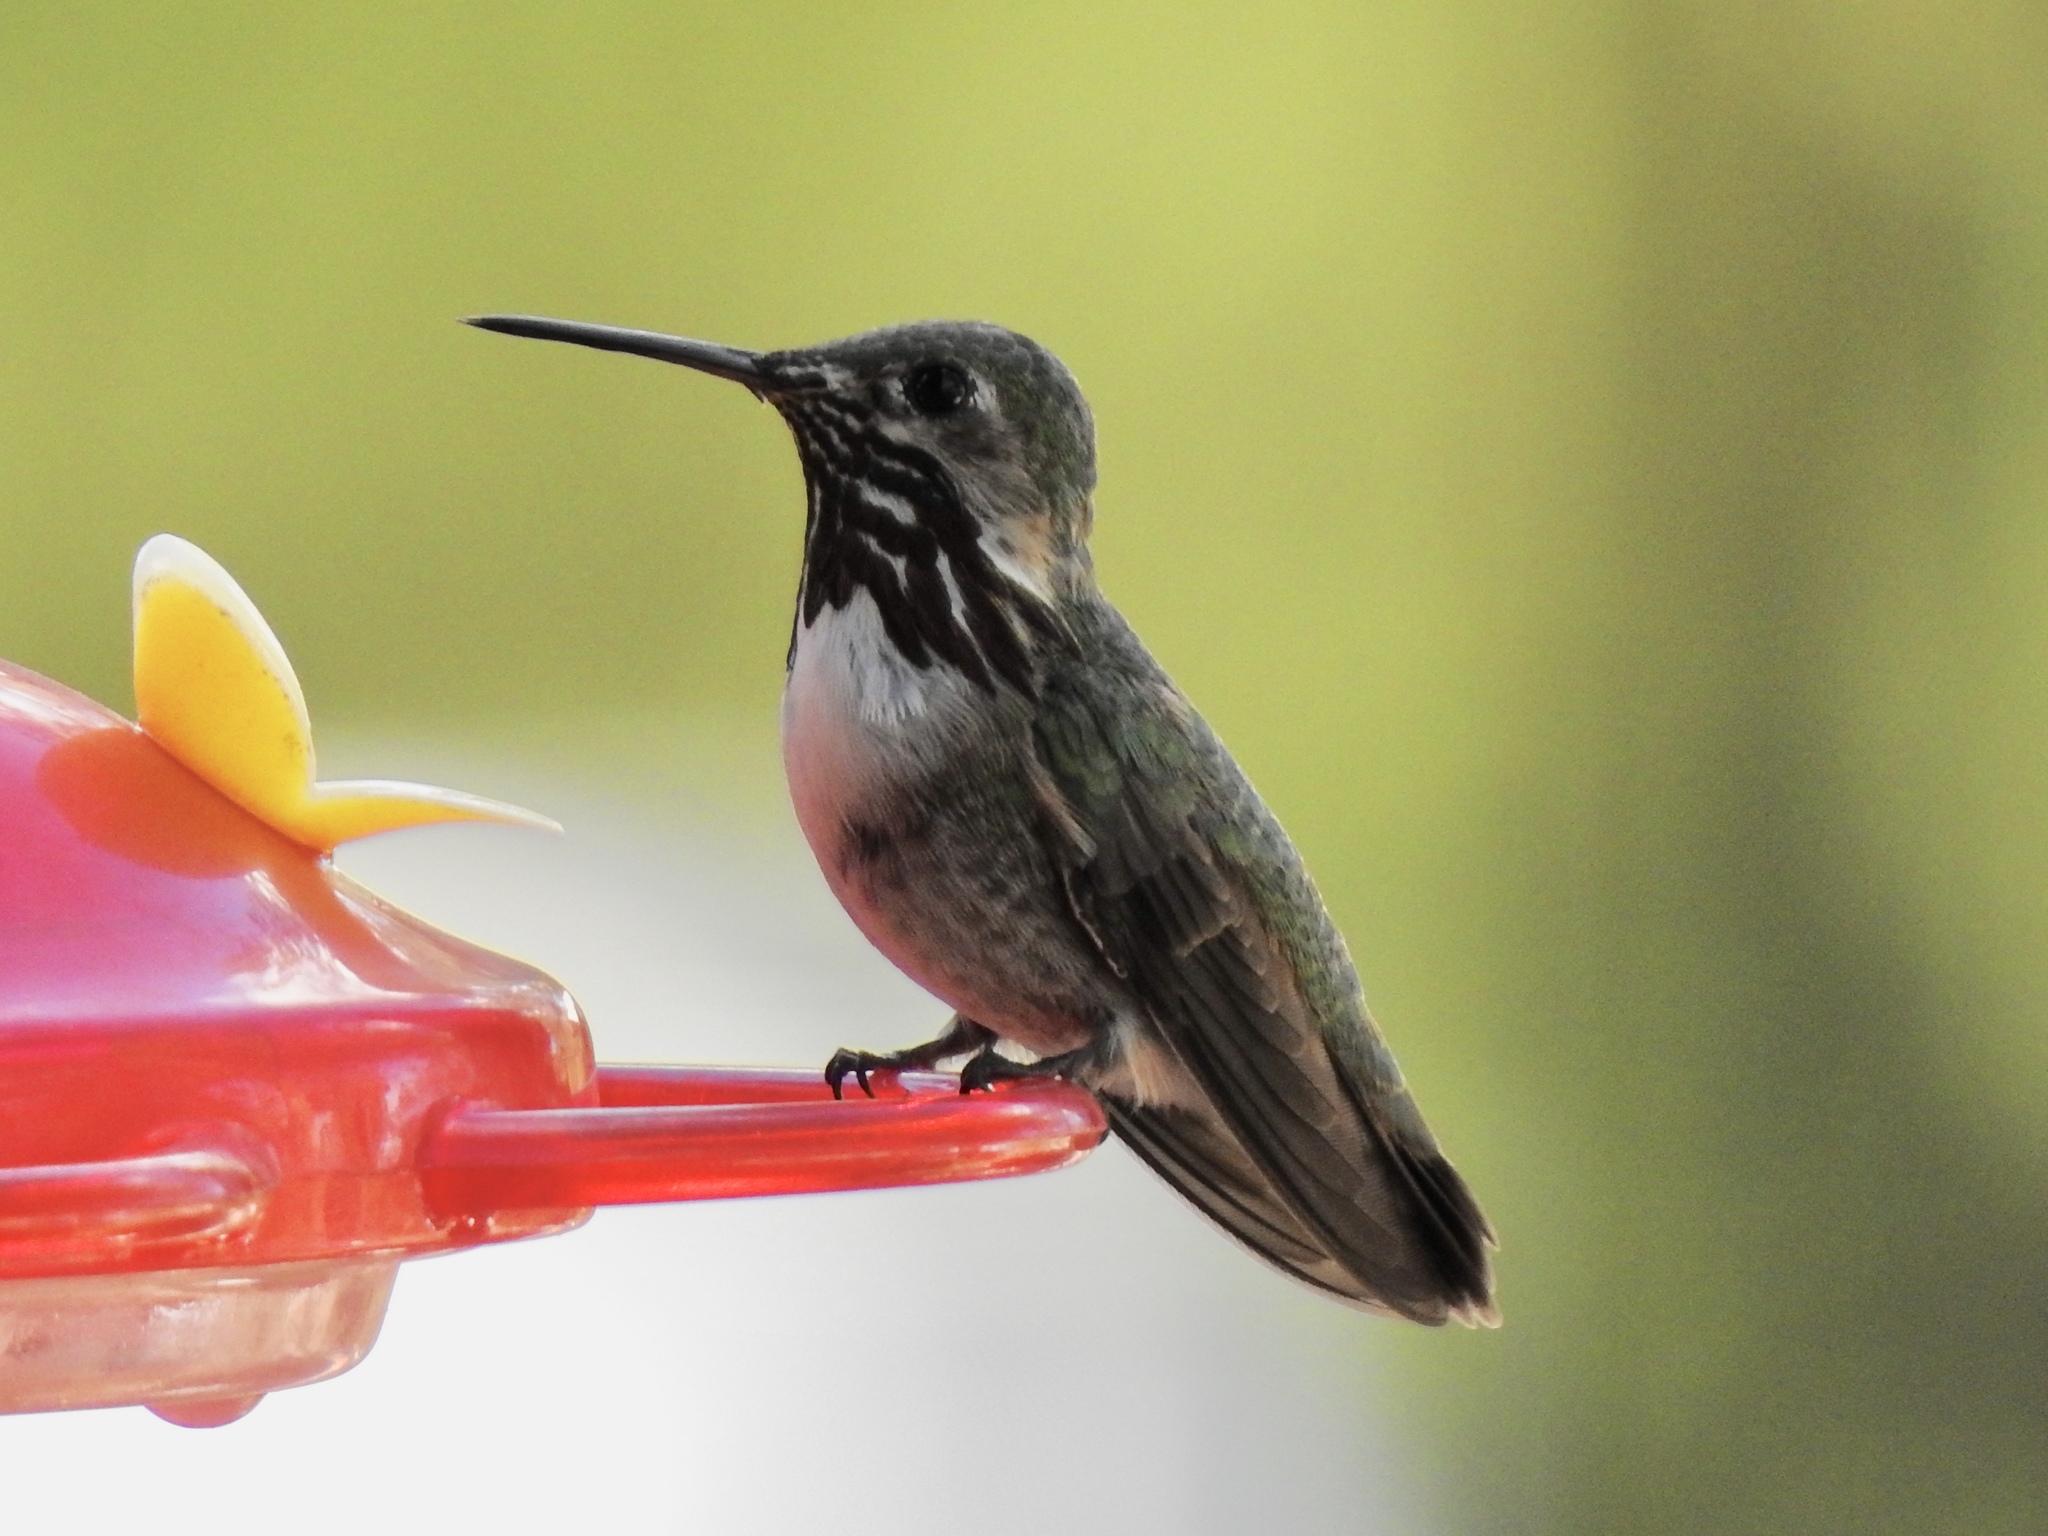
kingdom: Animalia
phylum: Chordata
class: Aves
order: Apodiformes
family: Trochilidae
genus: Selasphorus
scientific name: Selasphorus calliope
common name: Calliope hummingbird
